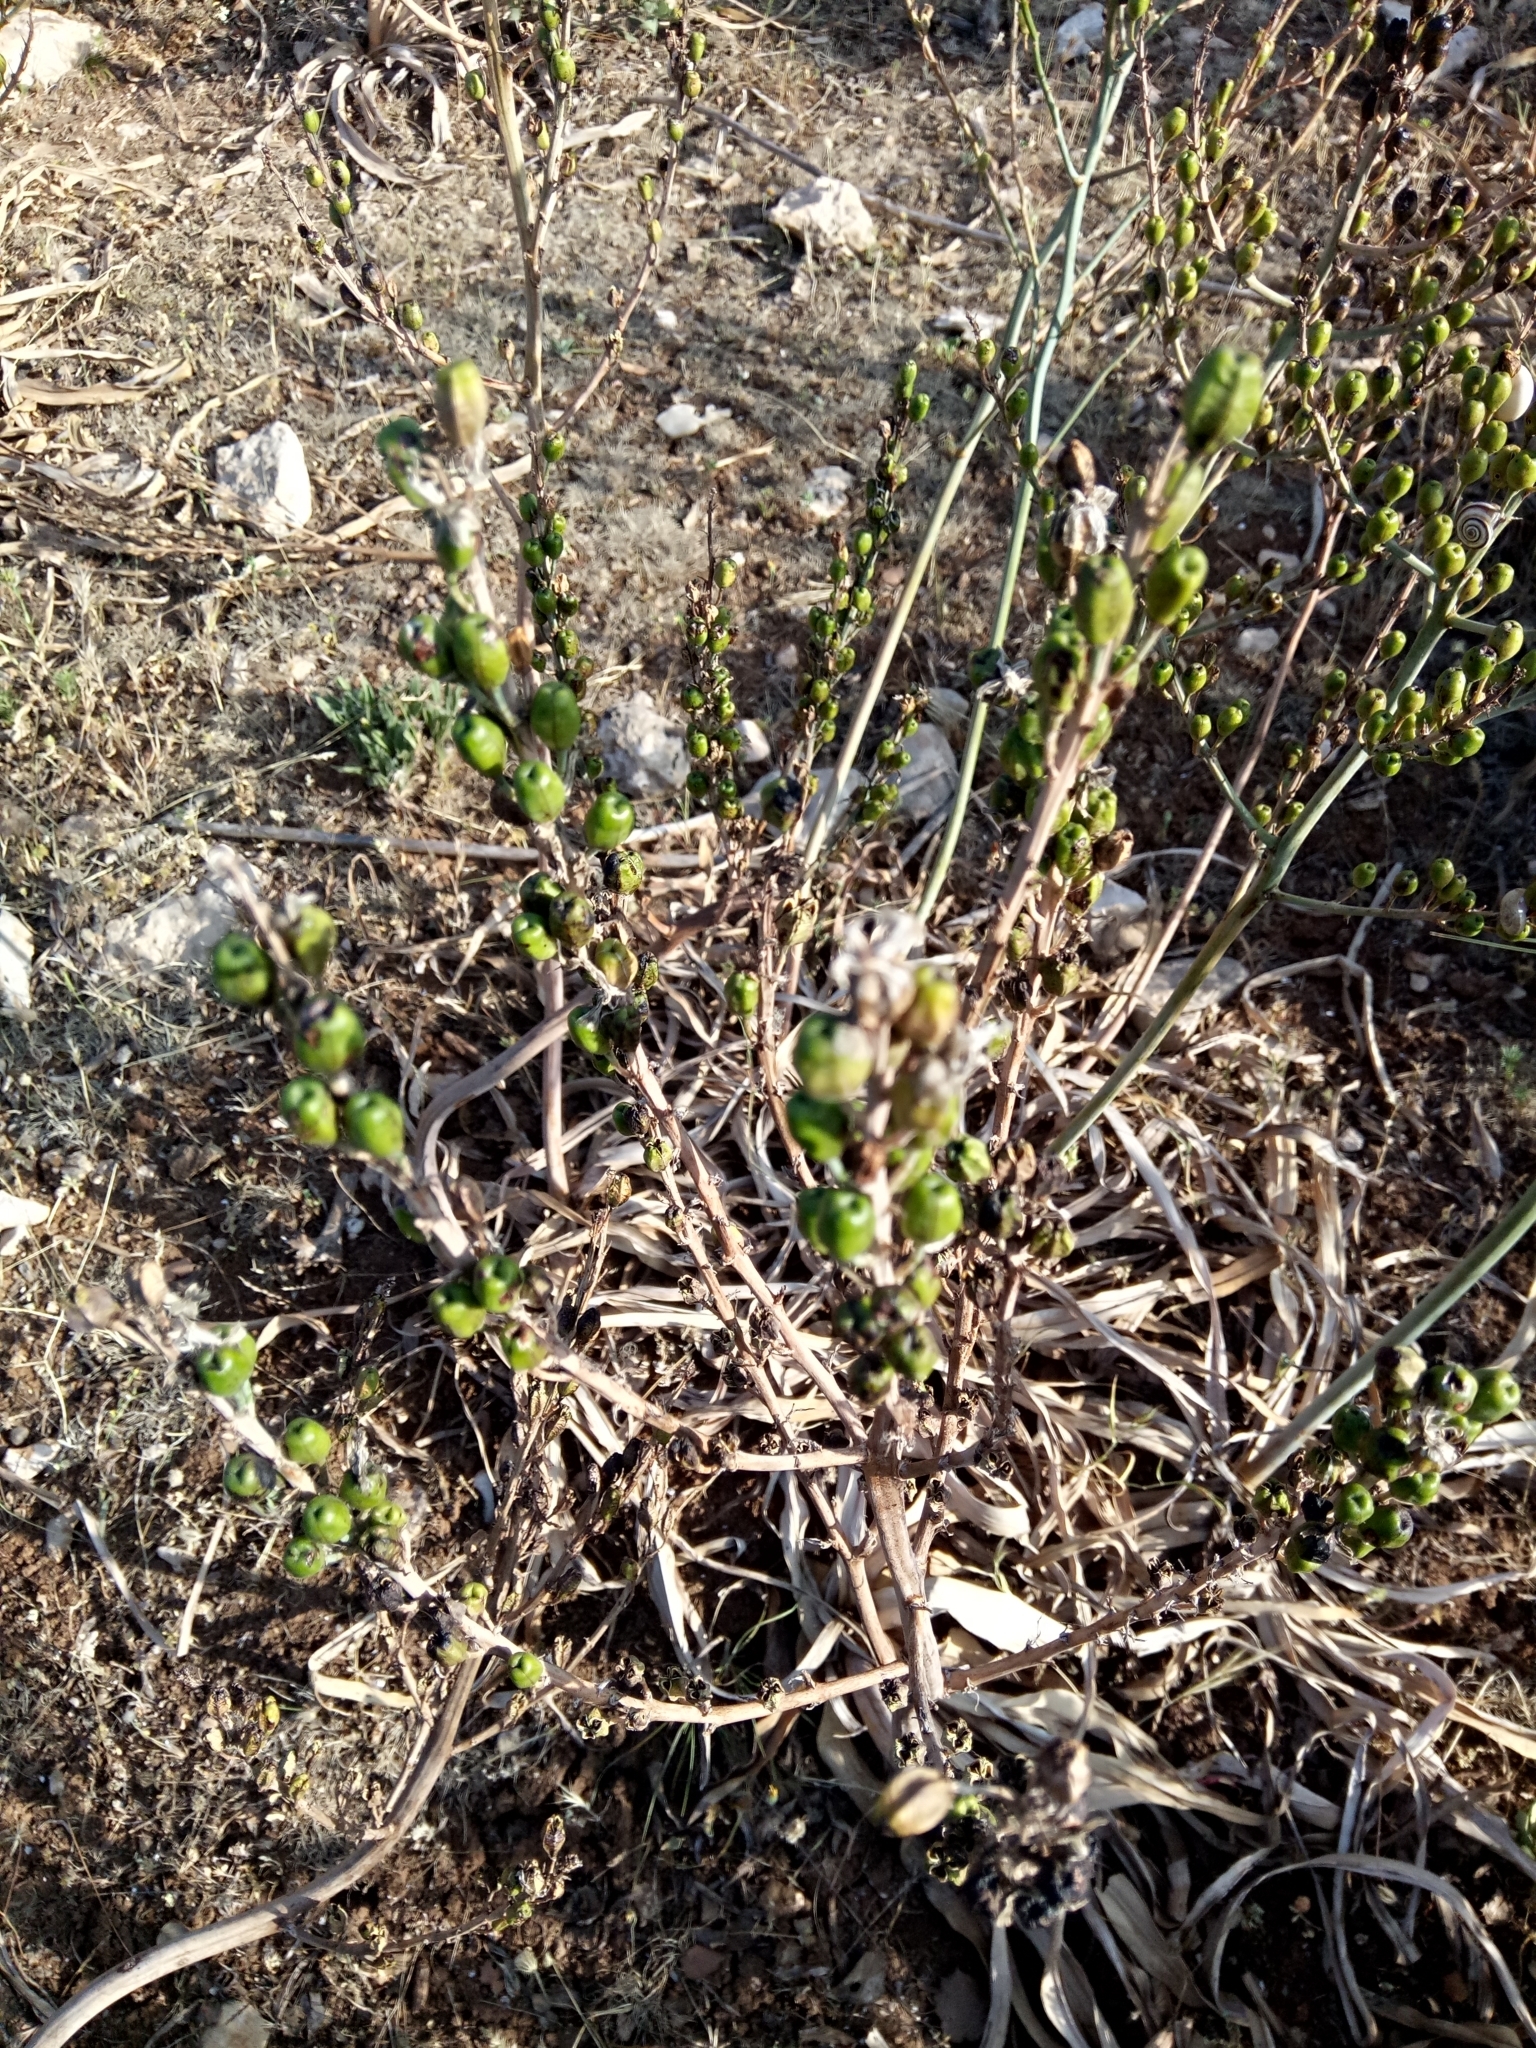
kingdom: Plantae
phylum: Tracheophyta
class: Liliopsida
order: Asparagales
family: Asphodelaceae
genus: Asphodelus
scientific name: Asphodelus ramosus
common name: Silverrod
